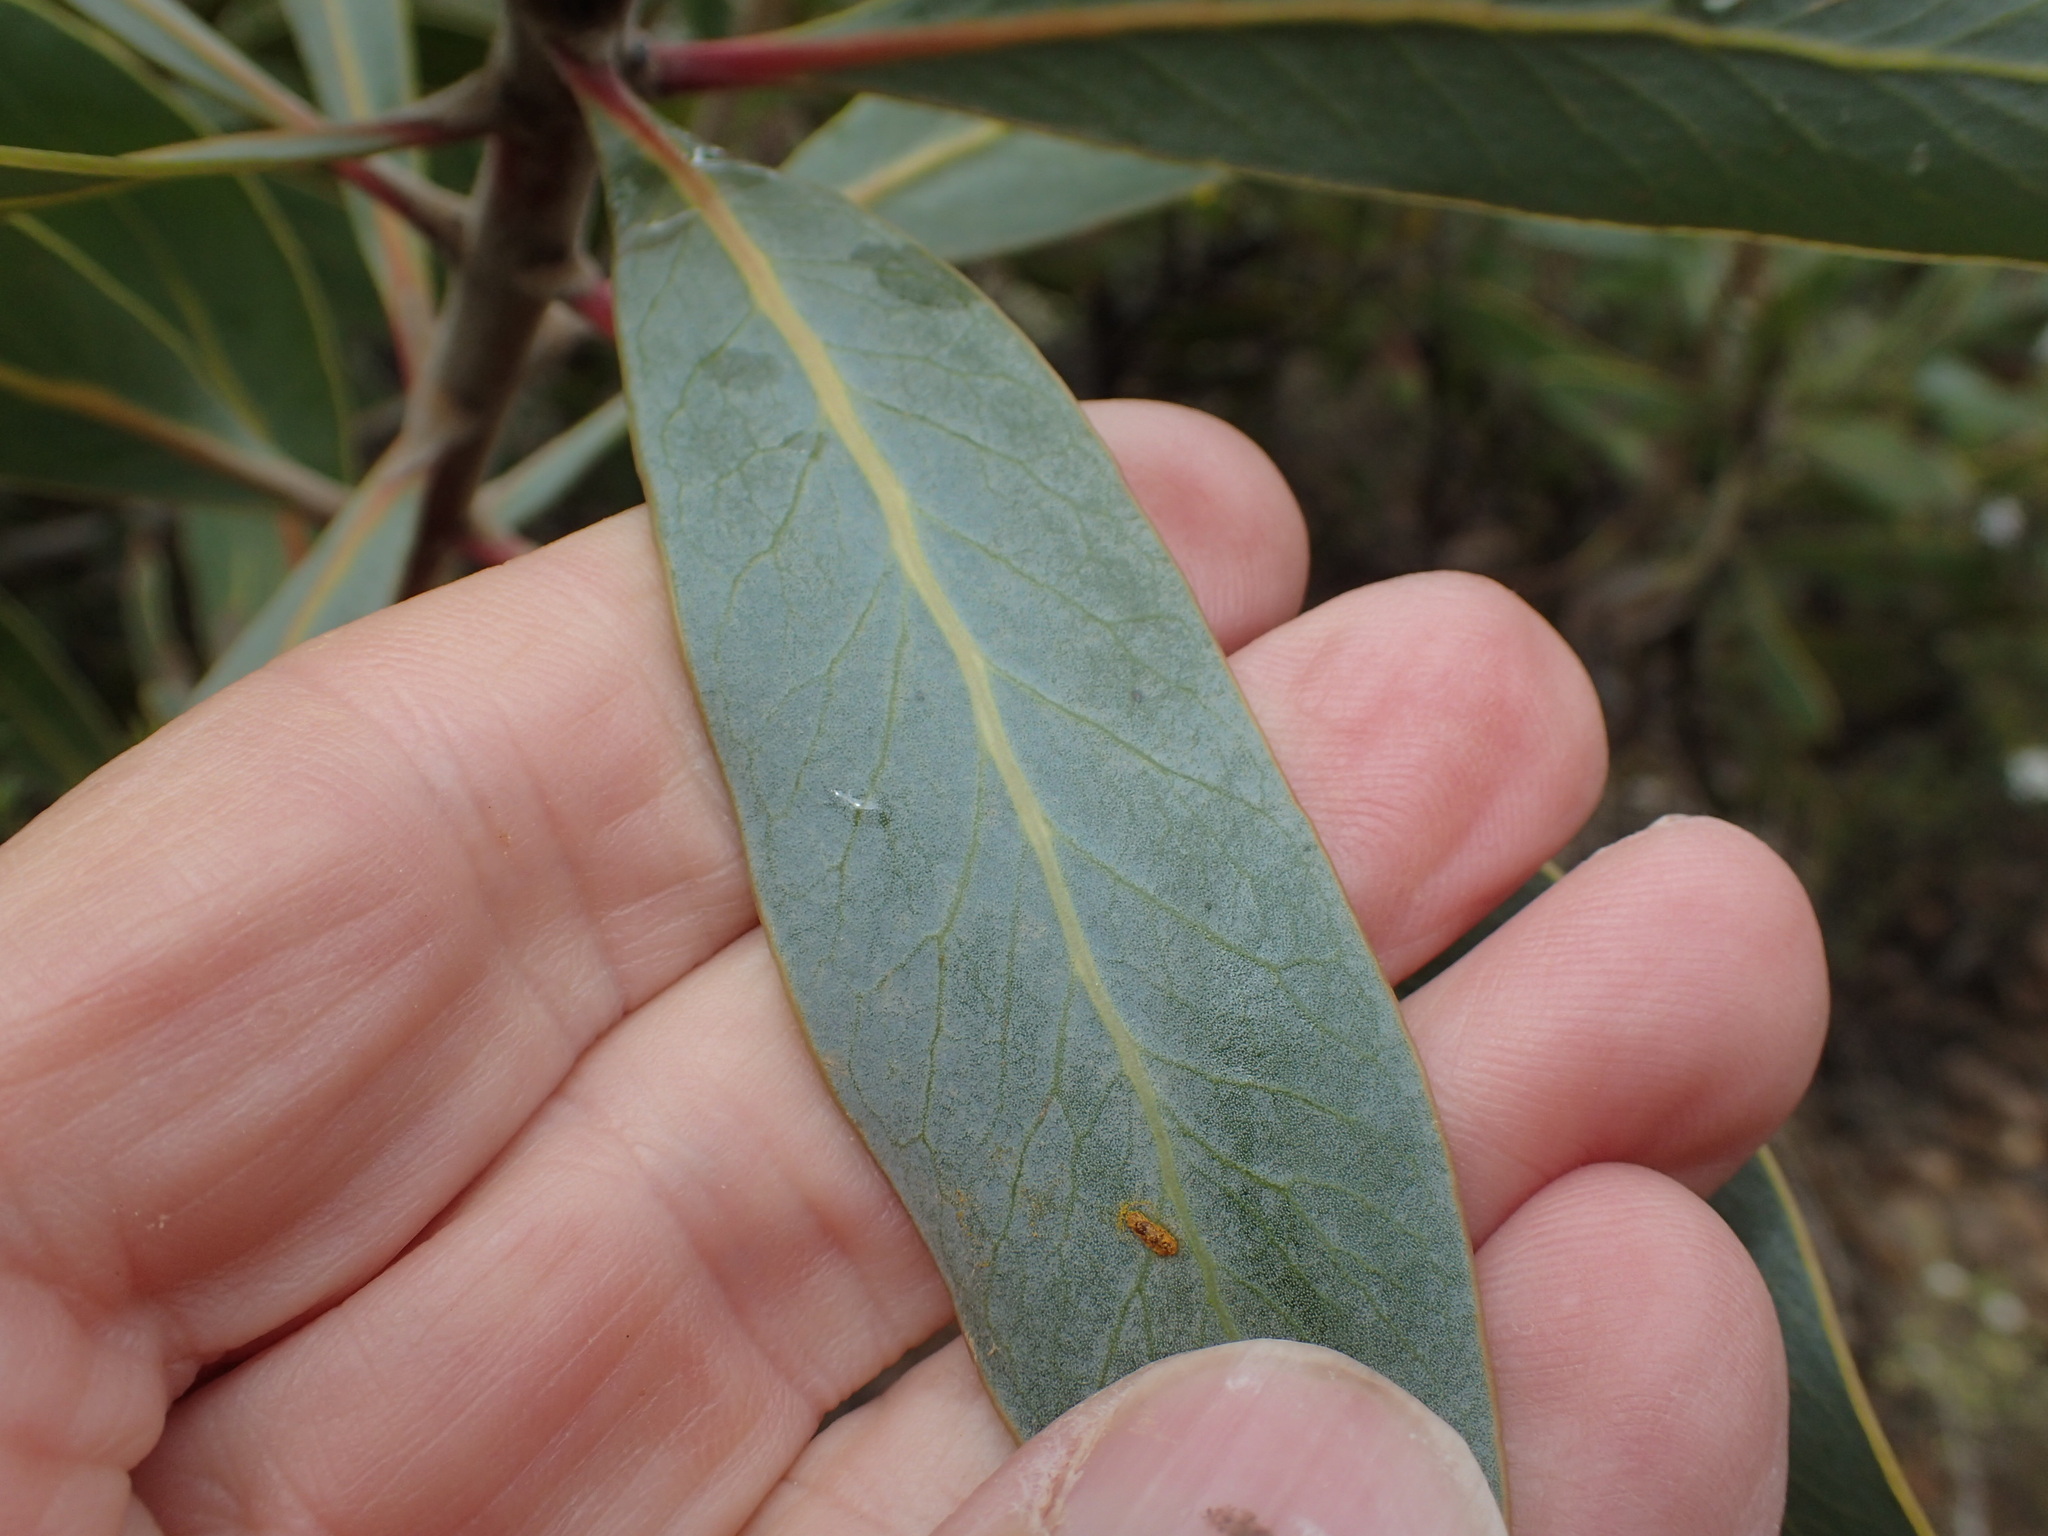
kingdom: Plantae
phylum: Tracheophyta
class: Magnoliopsida
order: Proteales
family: Proteaceae
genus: Protea
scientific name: Protea laurifolia
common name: Grey-leaf sugarbsh
